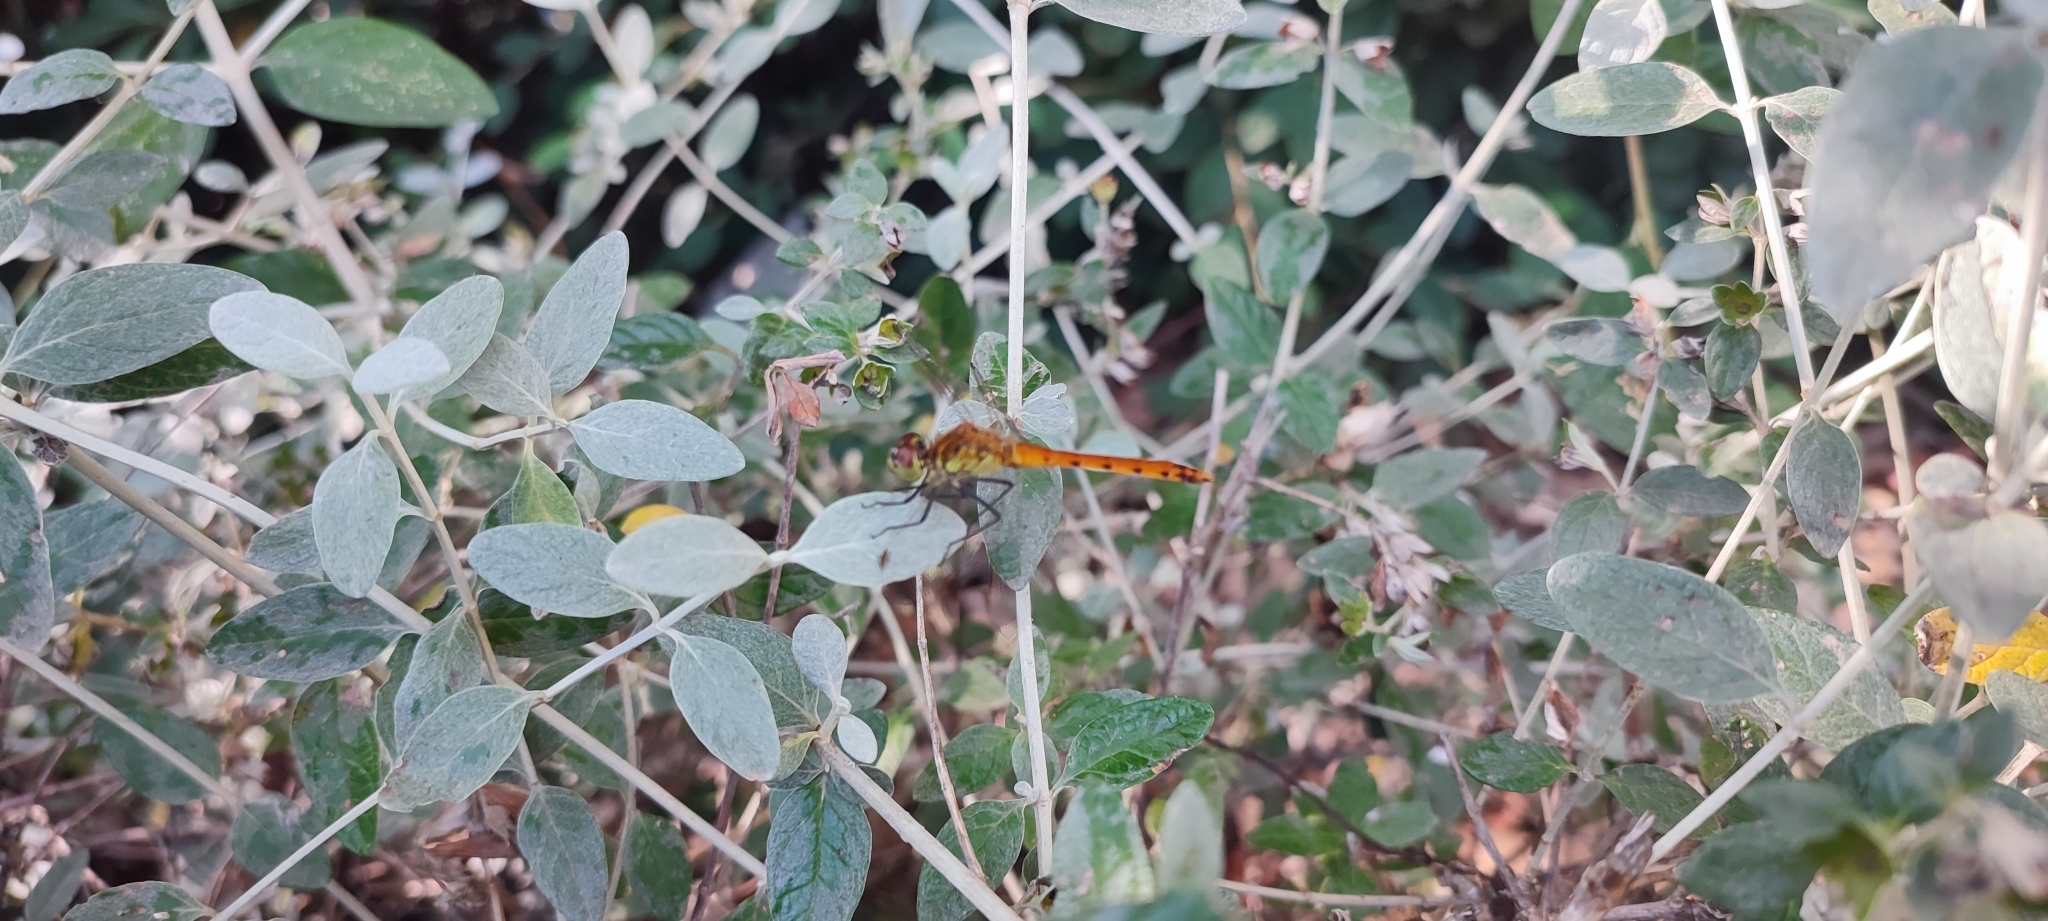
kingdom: Animalia
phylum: Arthropoda
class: Insecta
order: Odonata
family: Libellulidae
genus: Sympetrum
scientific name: Sympetrum depressiusculum
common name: Spotted darter
